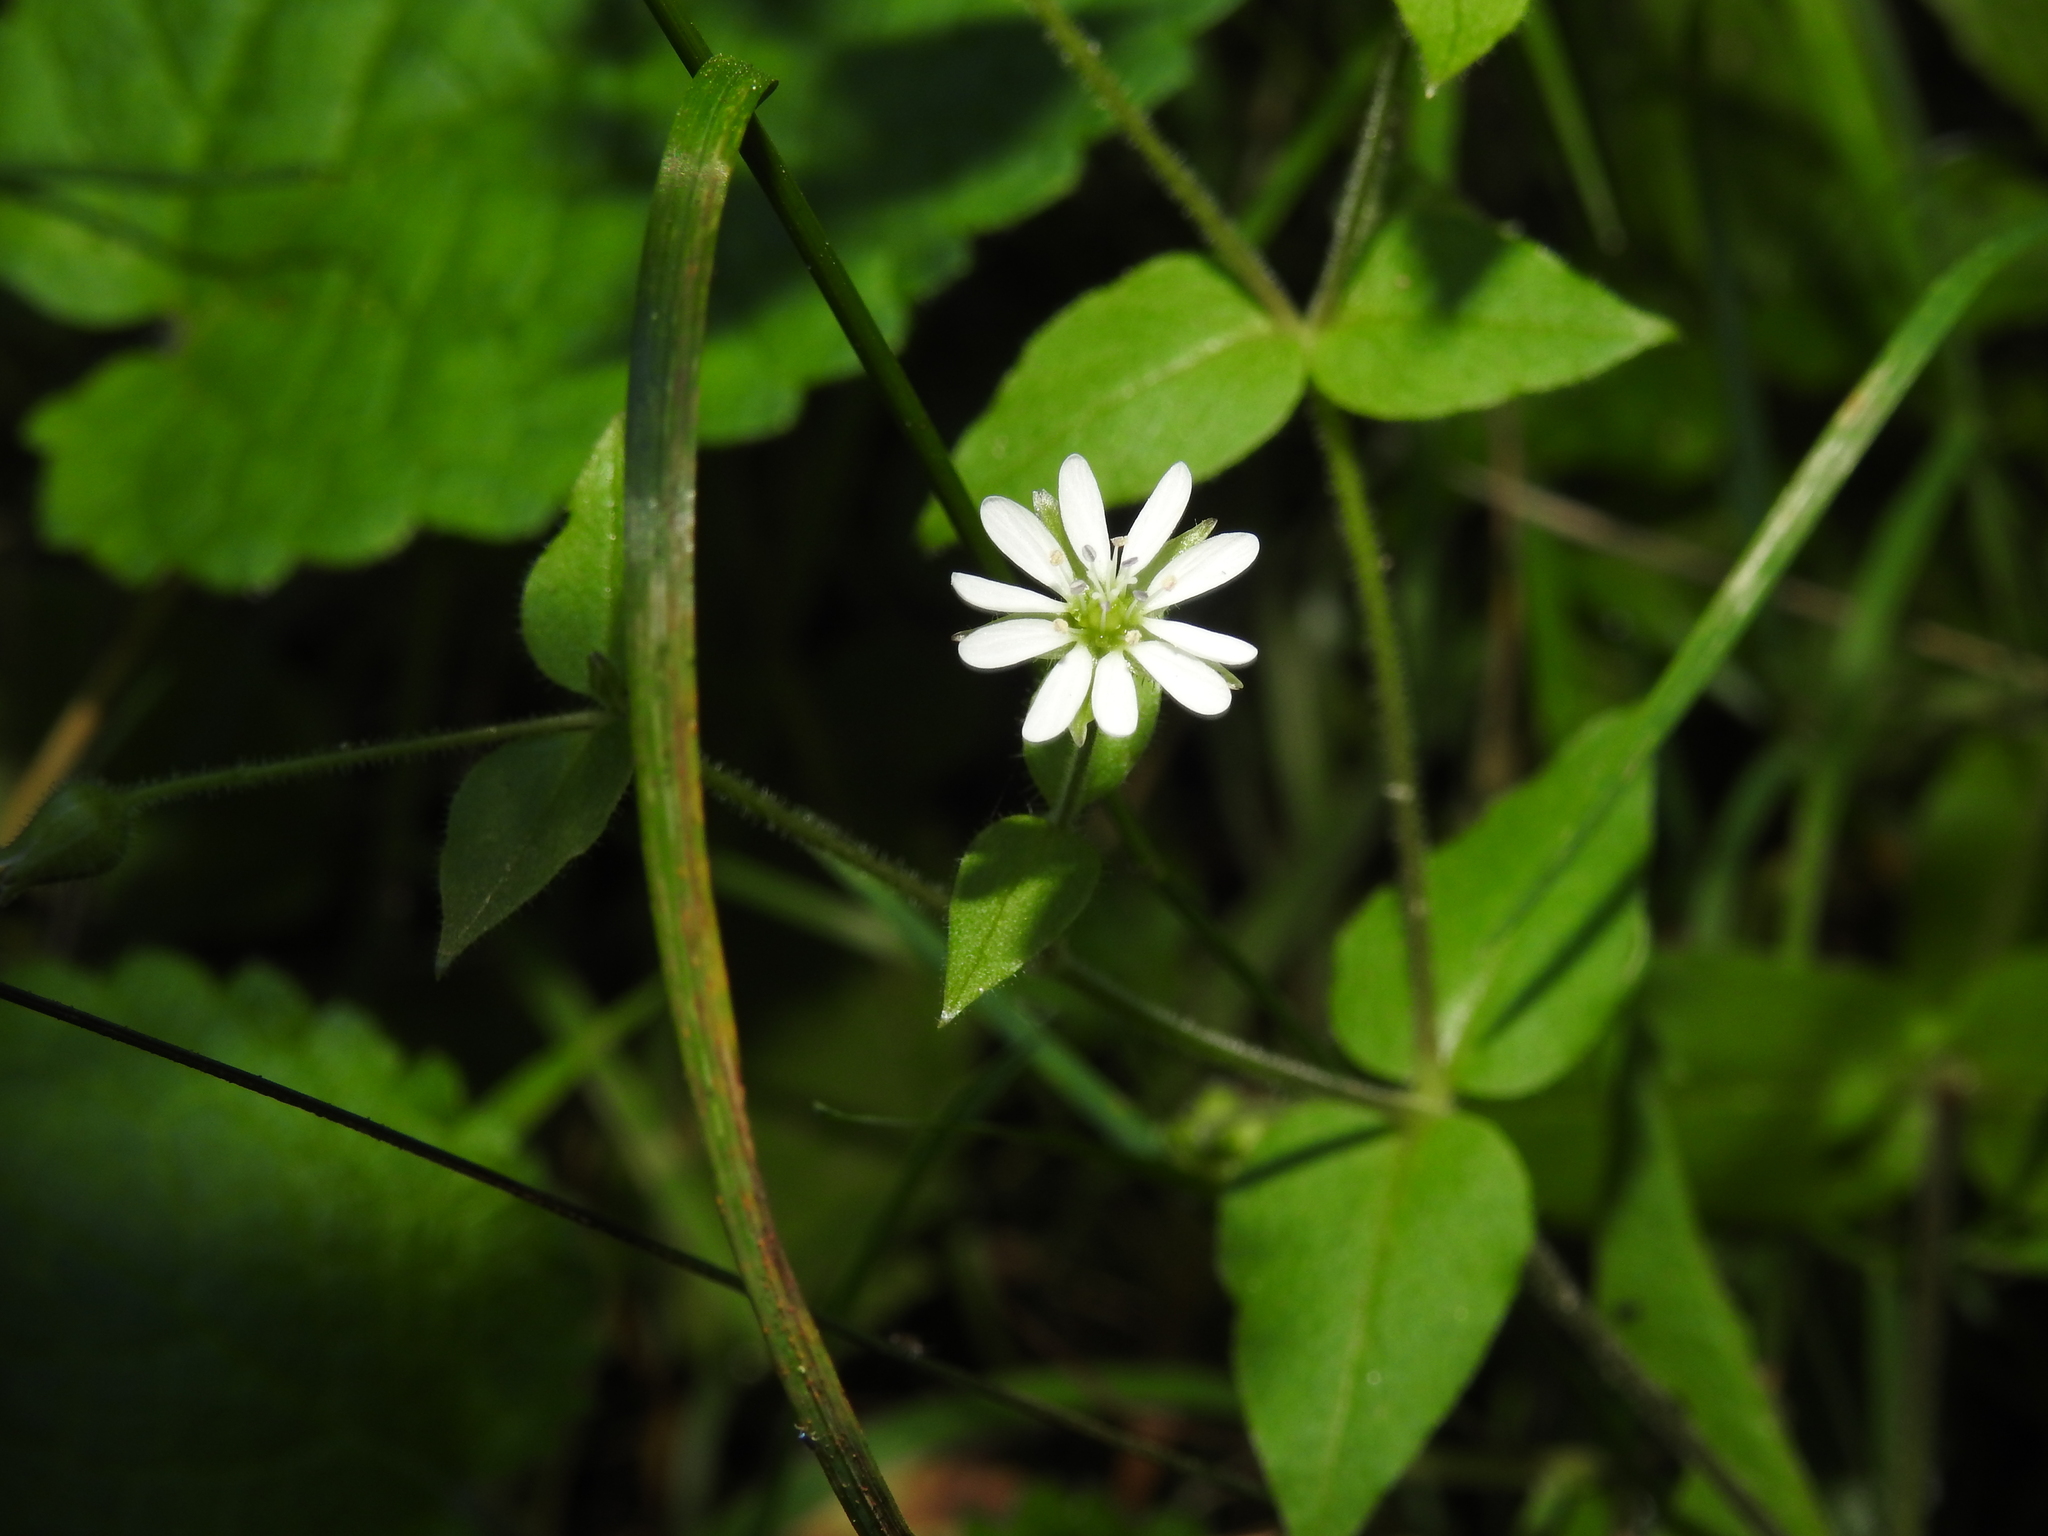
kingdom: Plantae
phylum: Tracheophyta
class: Magnoliopsida
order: Caryophyllales
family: Caryophyllaceae
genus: Stellaria
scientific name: Stellaria aquatica
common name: Water chickweed
